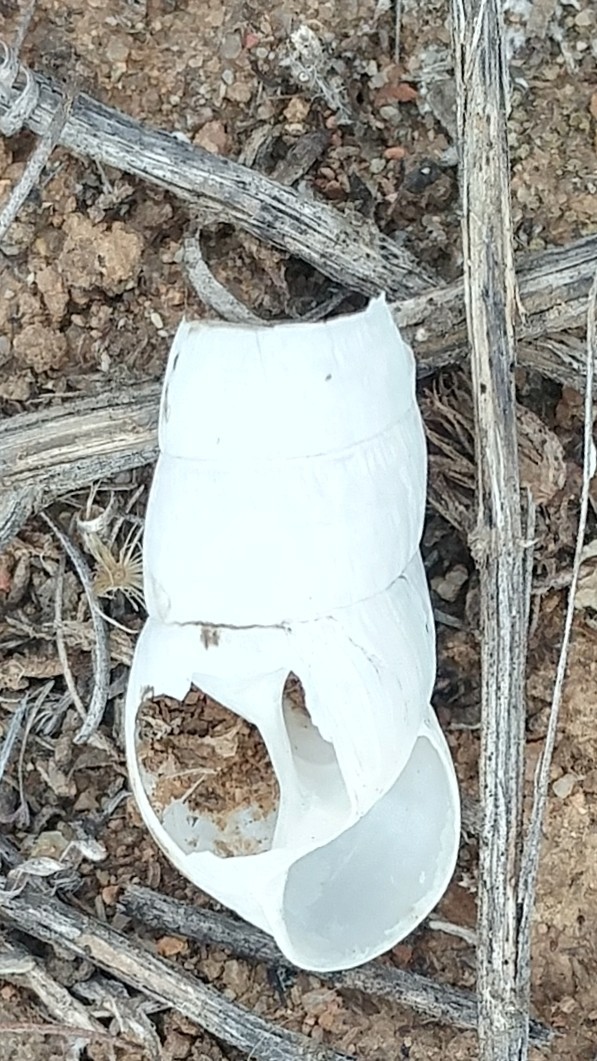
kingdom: Animalia
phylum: Mollusca
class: Gastropoda
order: Stylommatophora
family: Achatinidae
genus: Rumina
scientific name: Rumina decollata
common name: Decollate snail
